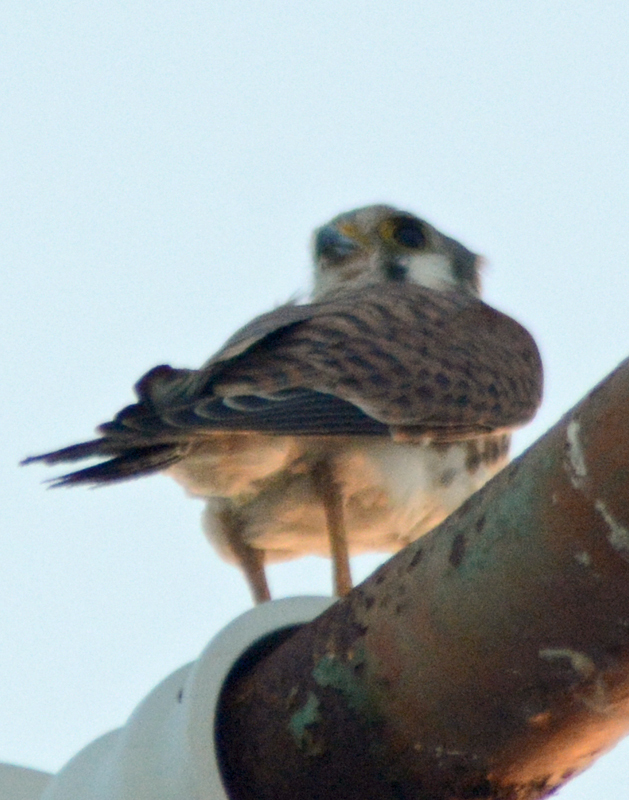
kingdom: Animalia
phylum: Chordata
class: Aves
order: Falconiformes
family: Falconidae
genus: Falco
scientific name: Falco sparverius
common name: American kestrel
